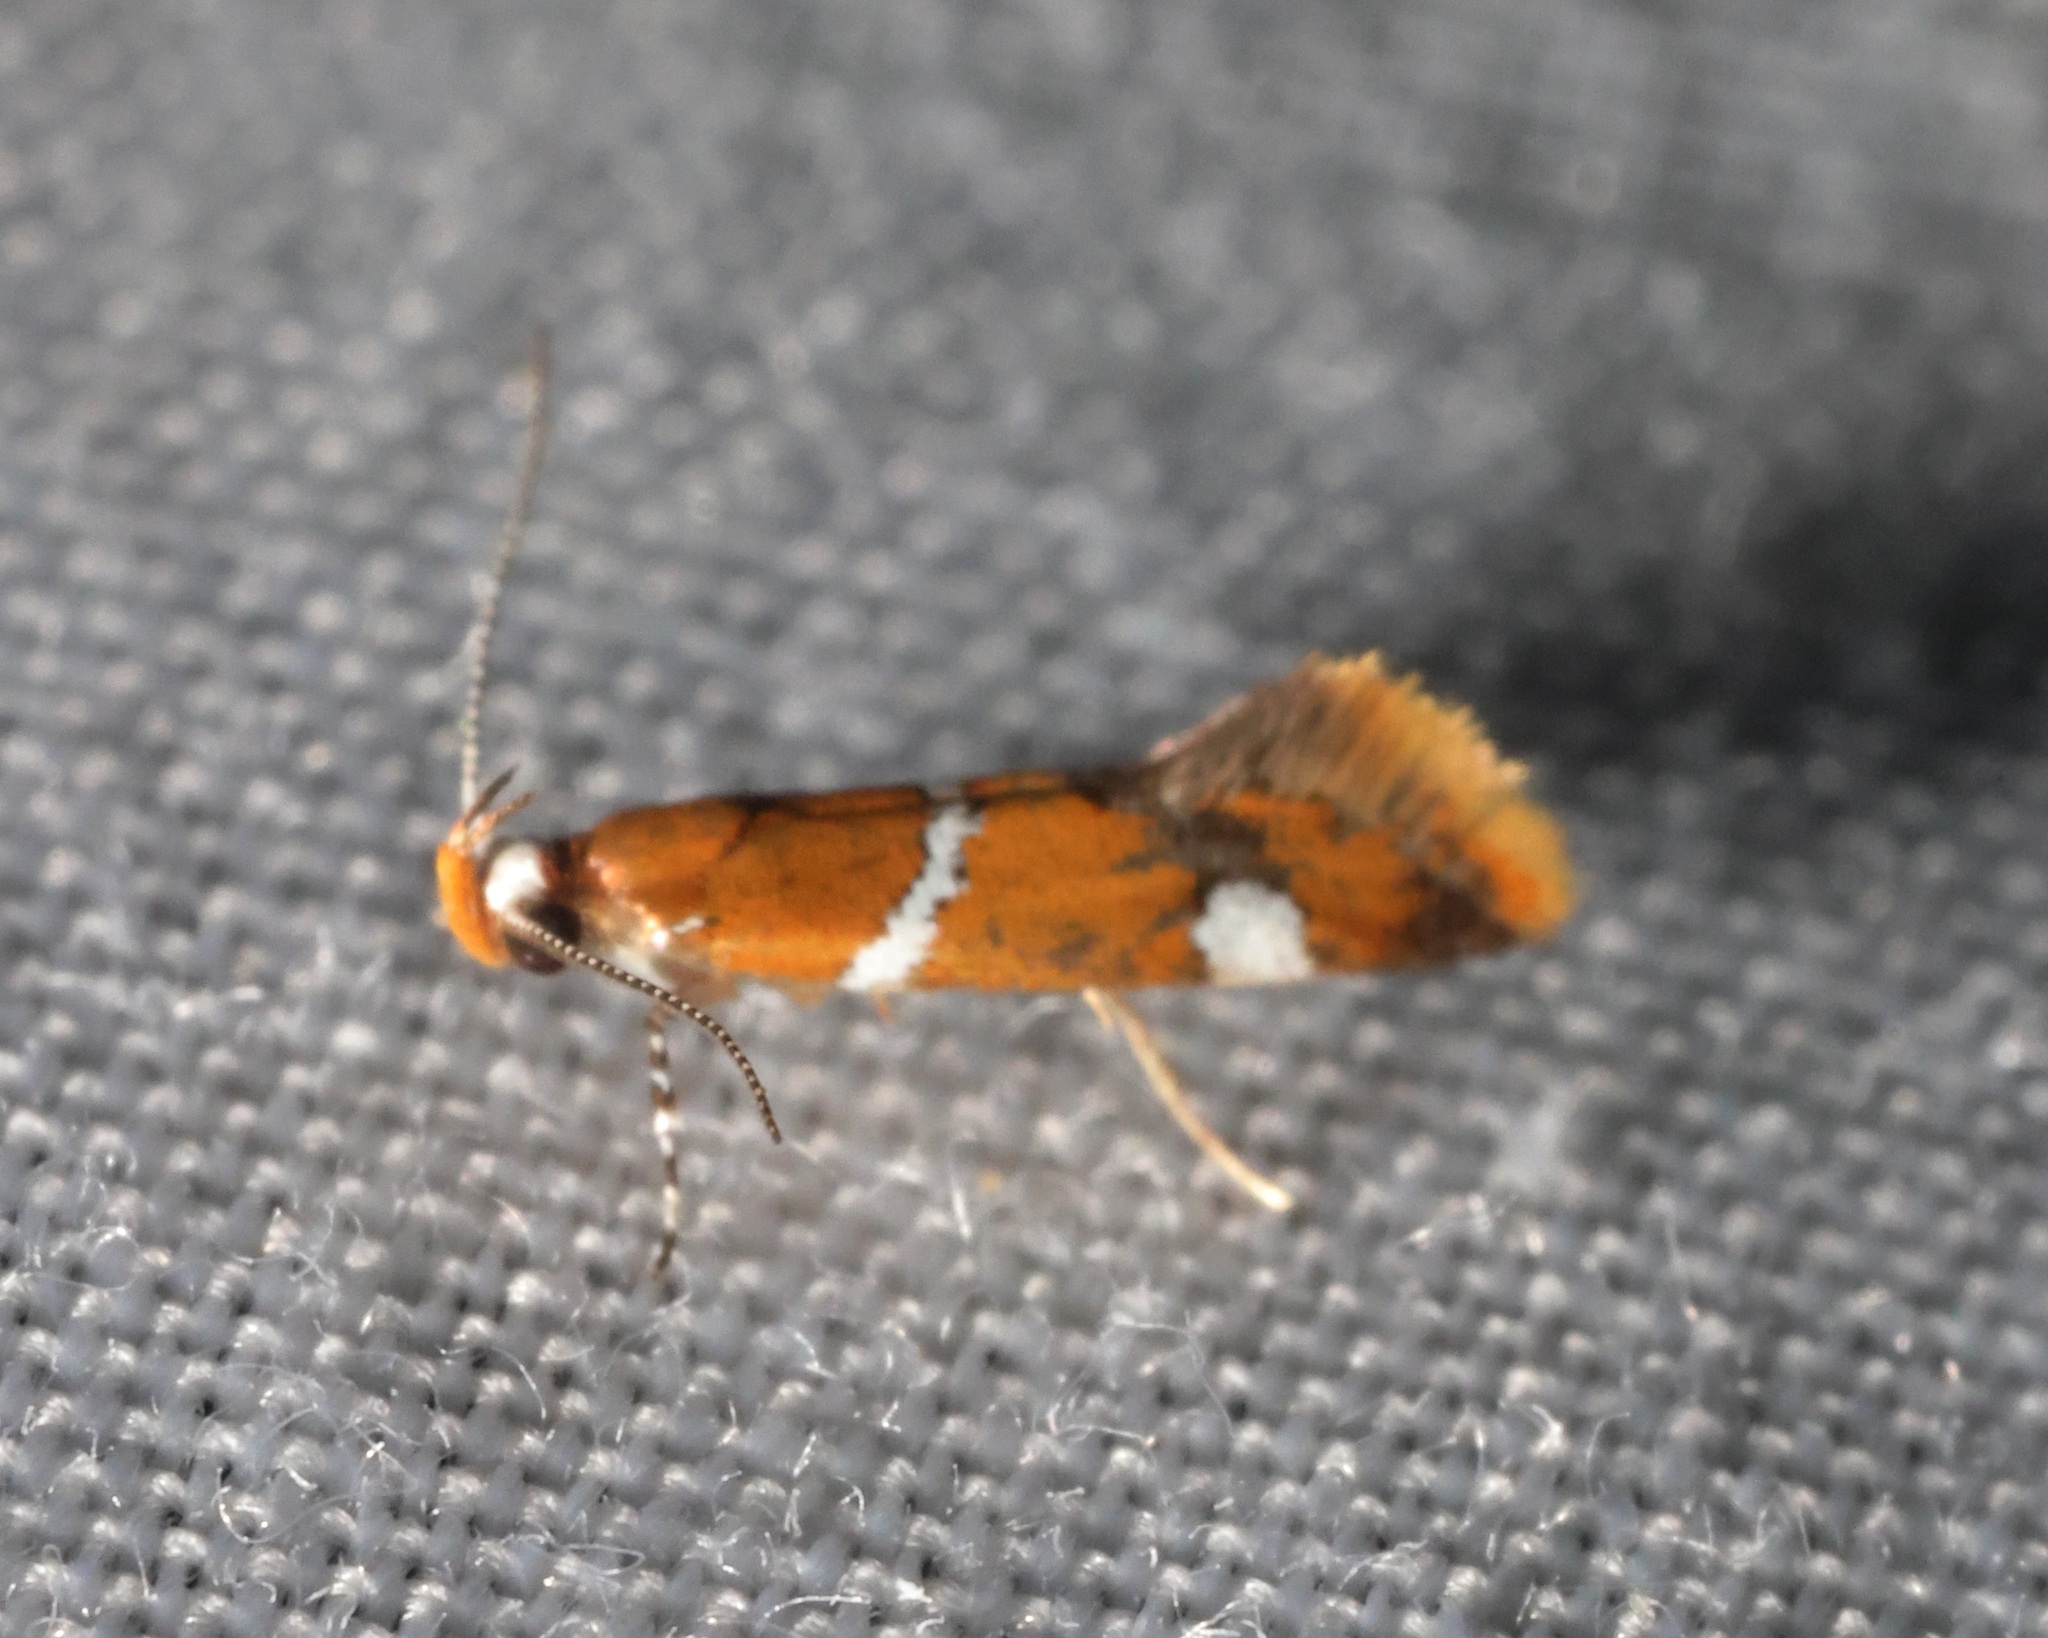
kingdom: Animalia
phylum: Arthropoda
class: Insecta
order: Lepidoptera
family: Oecophoridae
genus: Promalactis
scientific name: Promalactis albisquama
